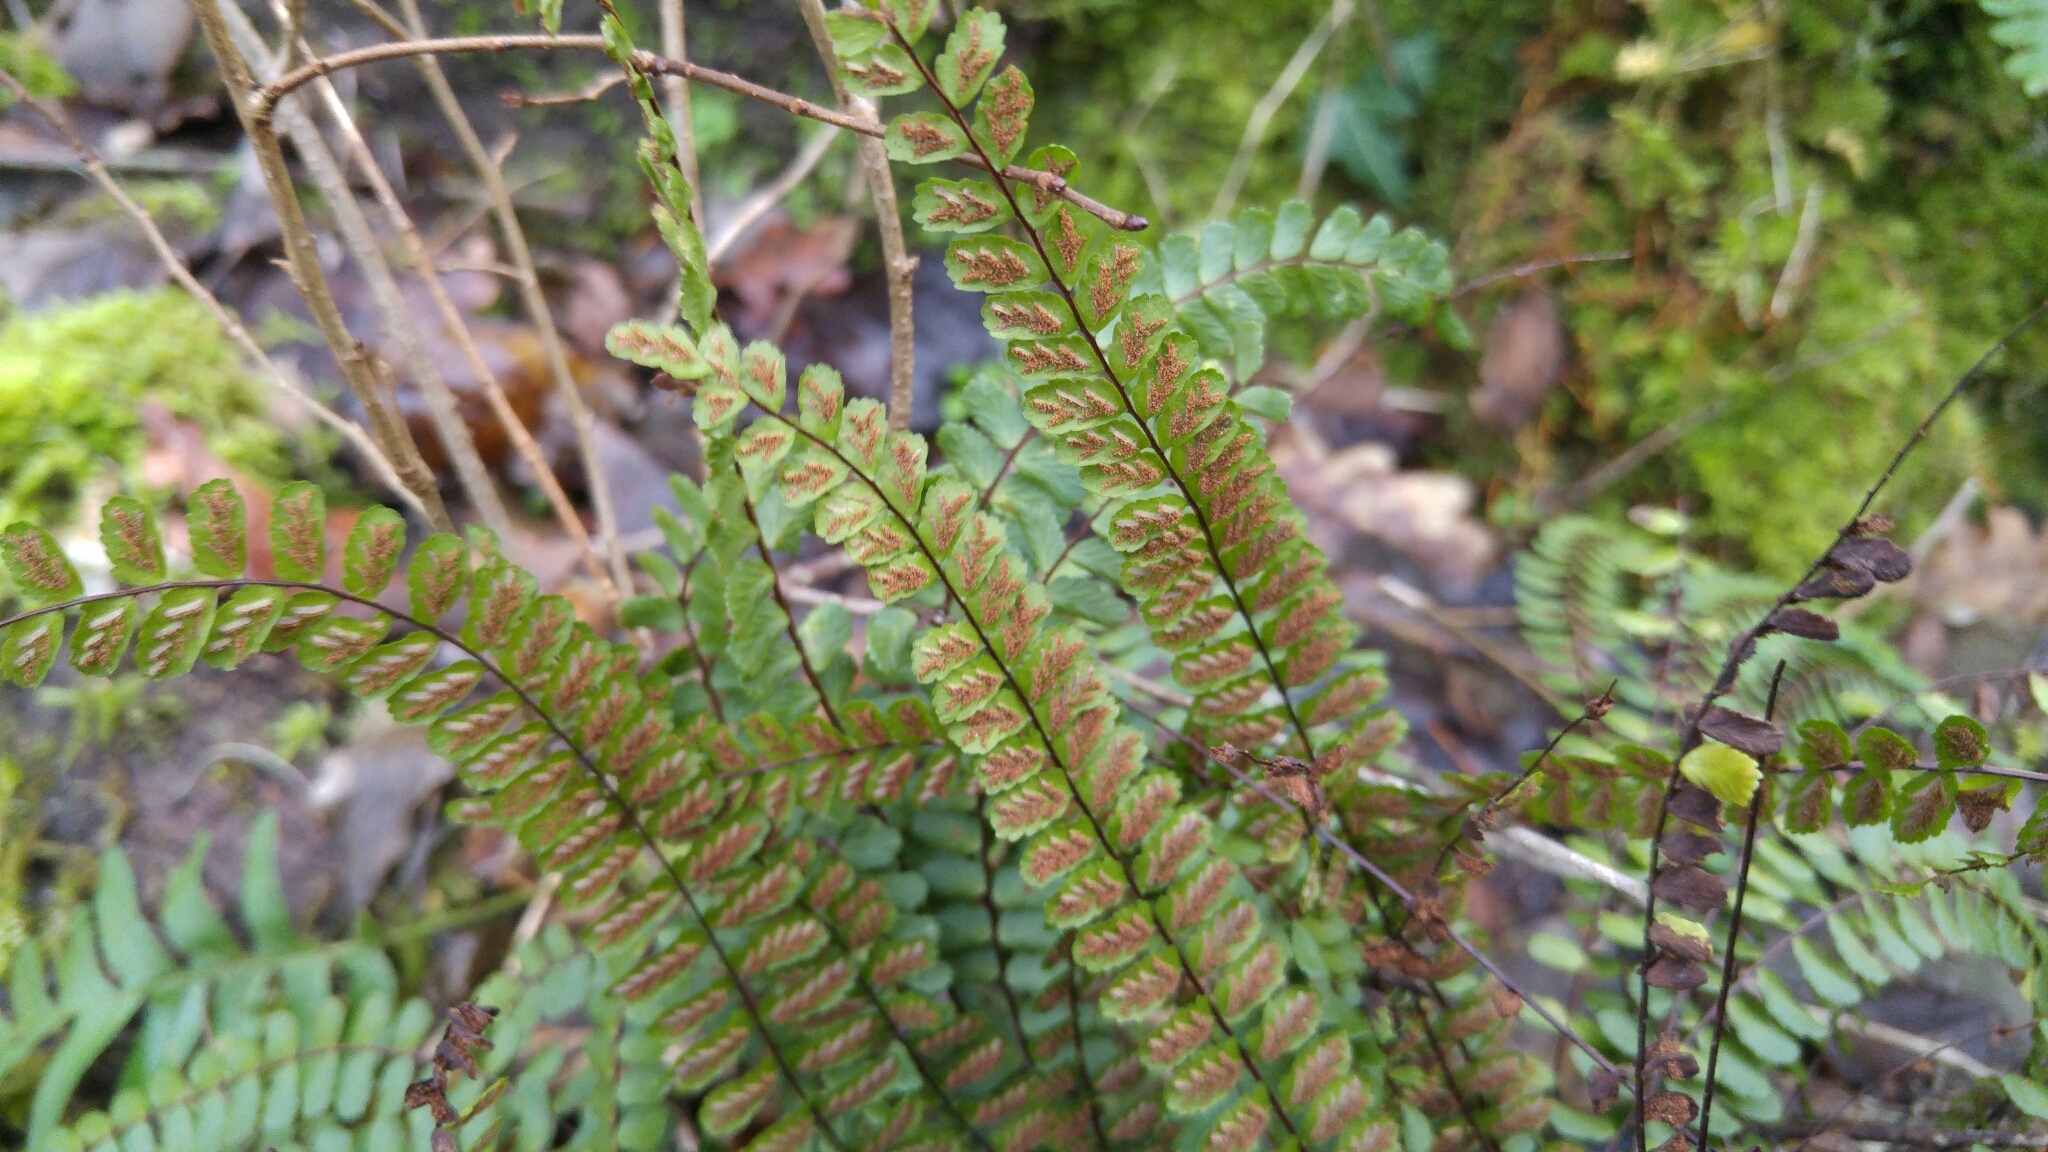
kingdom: Plantae
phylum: Tracheophyta
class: Polypodiopsida
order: Polypodiales
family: Aspleniaceae
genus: Asplenium
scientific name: Asplenium trichomanes
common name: Maidenhair spleenwort
